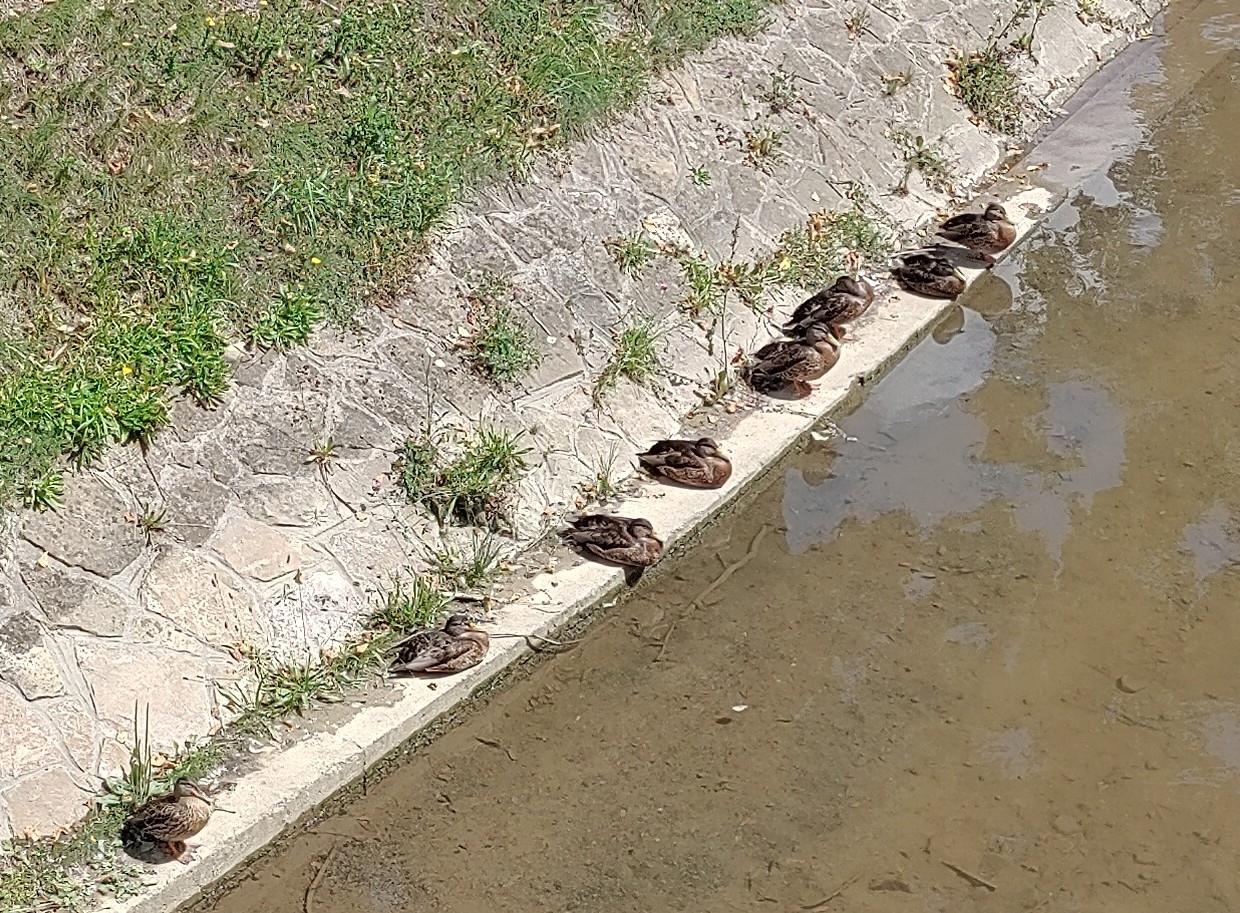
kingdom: Animalia
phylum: Chordata
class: Aves
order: Anseriformes
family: Anatidae
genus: Anas
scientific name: Anas platyrhynchos
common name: Mallard
